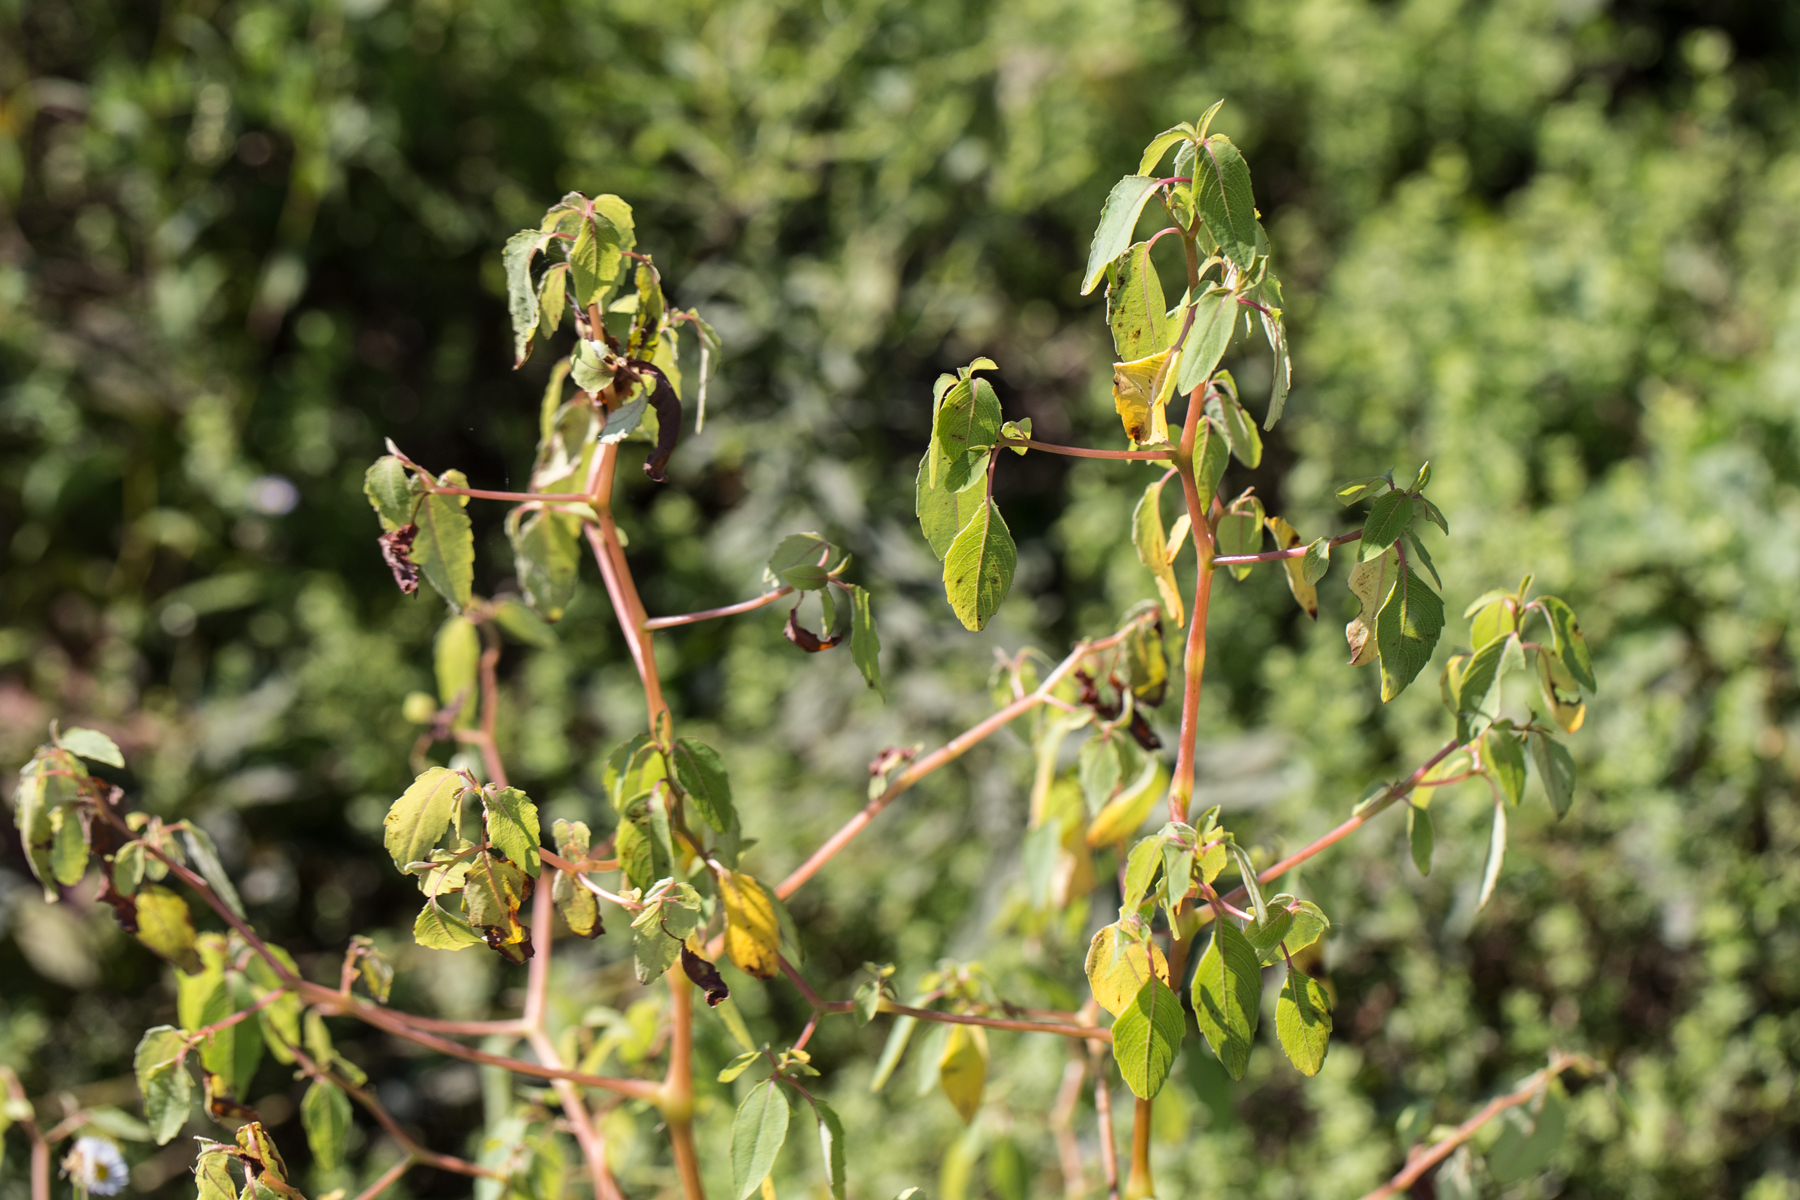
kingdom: Plantae
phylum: Tracheophyta
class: Magnoliopsida
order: Ericales
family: Balsaminaceae
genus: Impatiens
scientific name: Impatiens capensis
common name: Orange balsam
